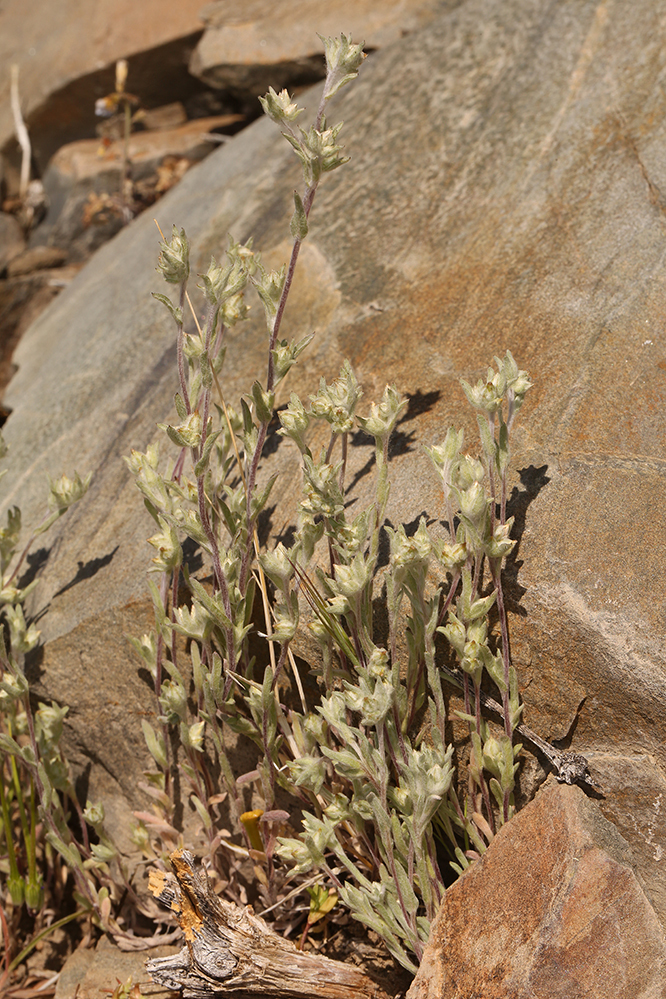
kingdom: Plantae
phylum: Tracheophyta
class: Magnoliopsida
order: Asterales
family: Asteraceae
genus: Logfia
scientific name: Logfia californica
